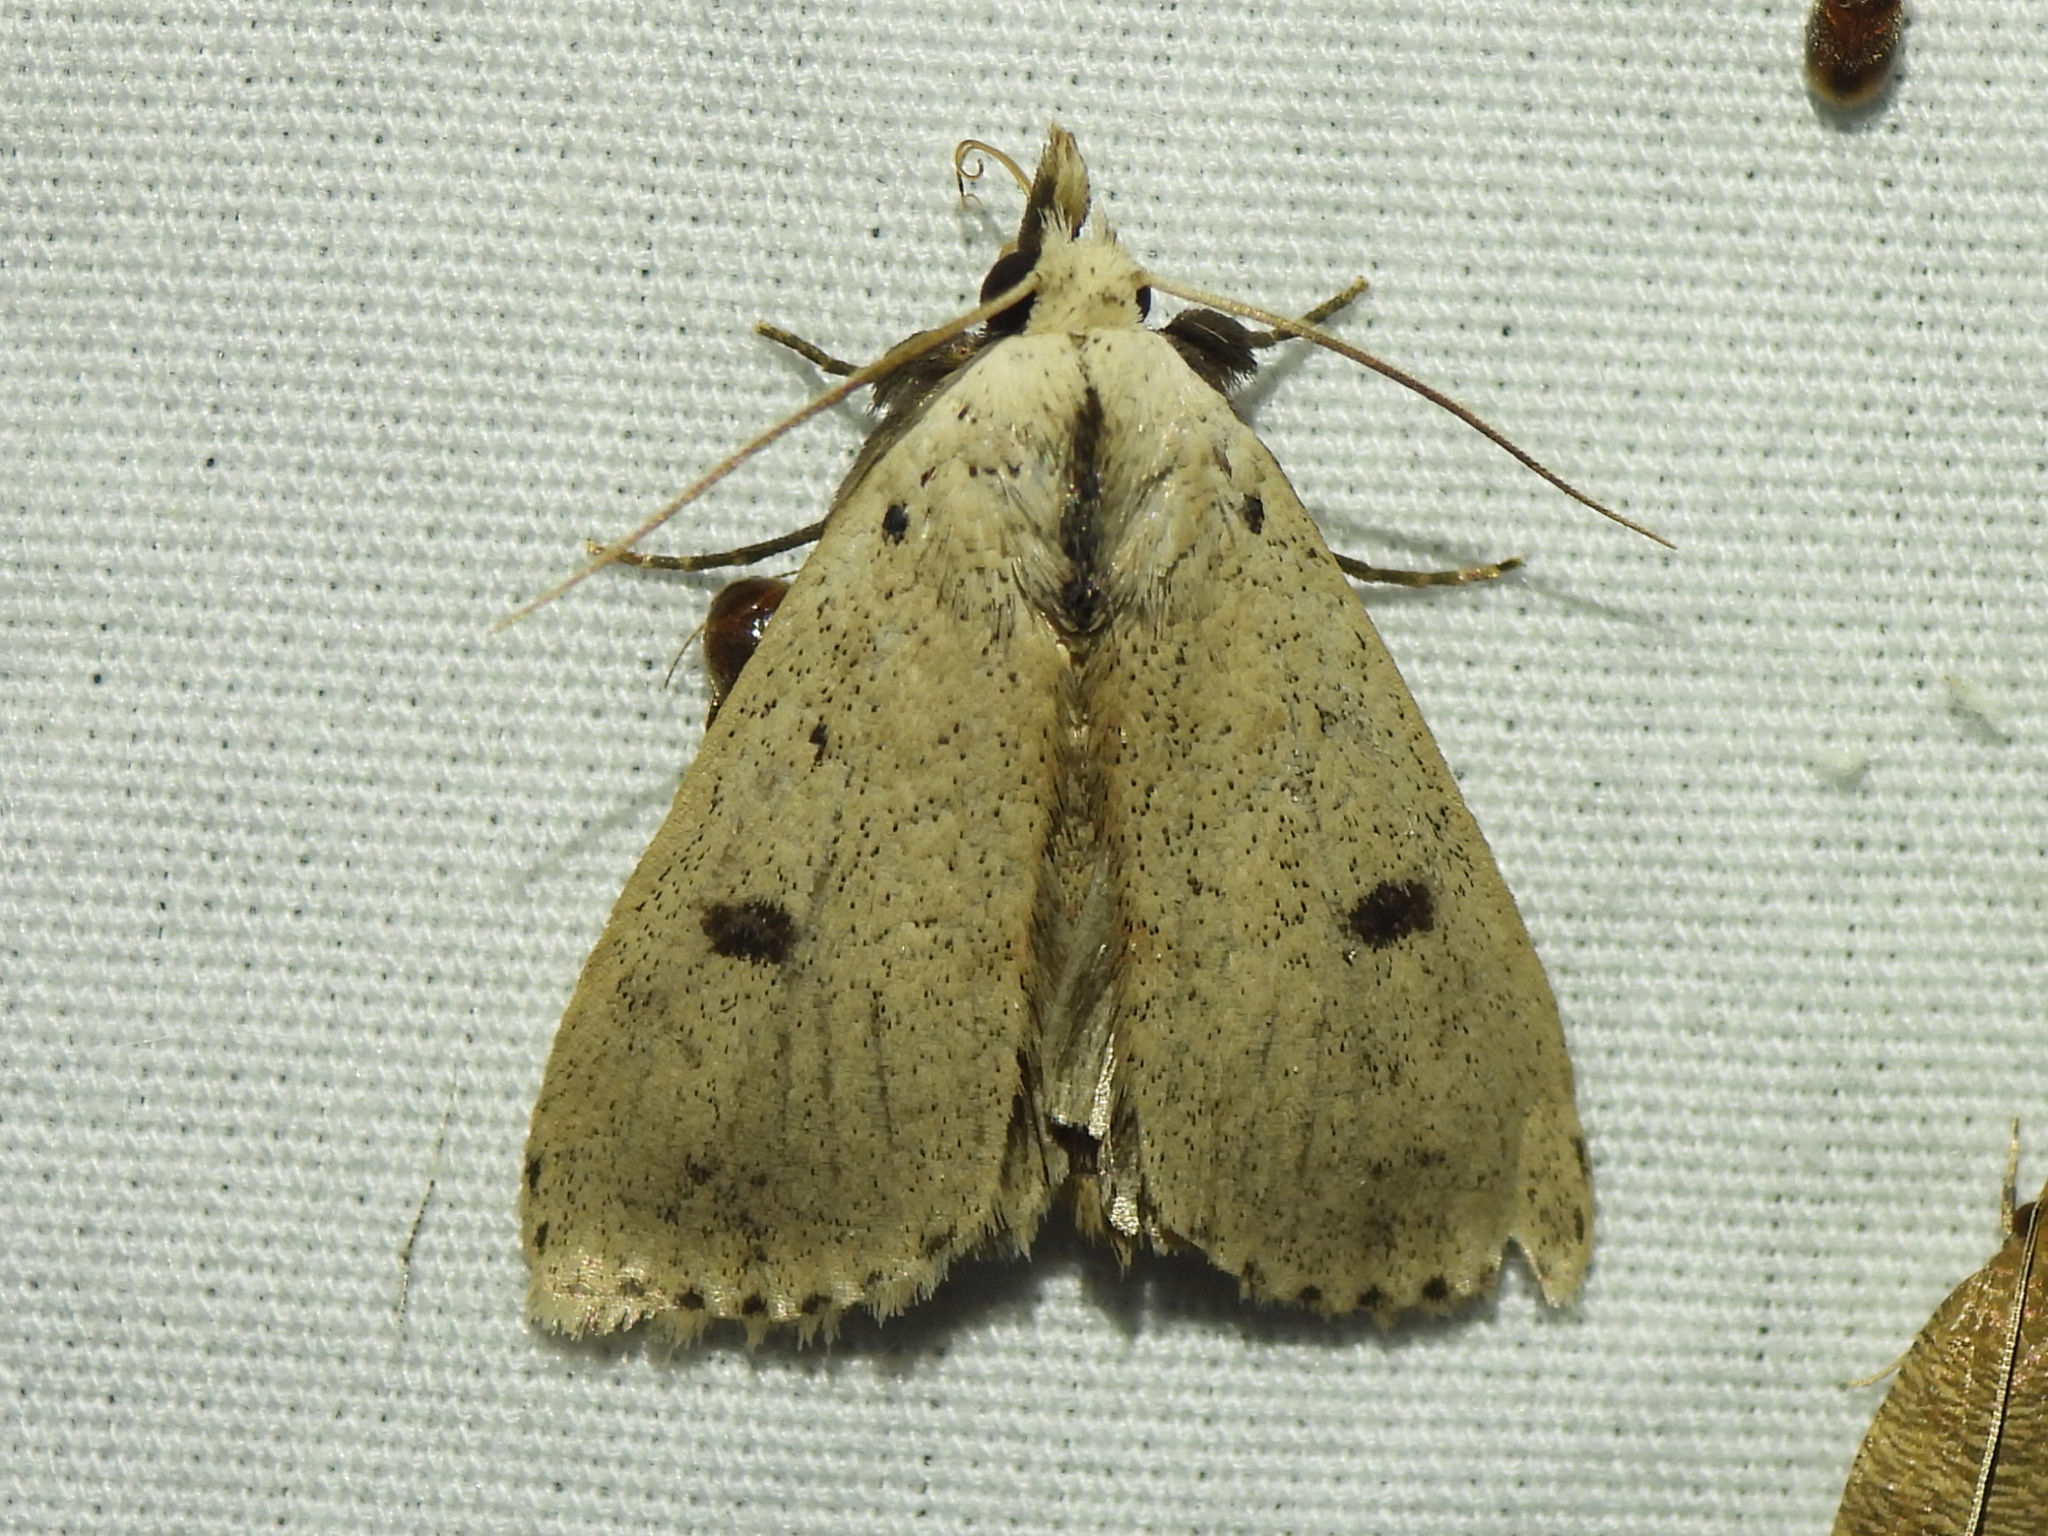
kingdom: Animalia
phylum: Arthropoda
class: Insecta
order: Lepidoptera
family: Erebidae
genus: Scolecocampa
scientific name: Scolecocampa liburna
